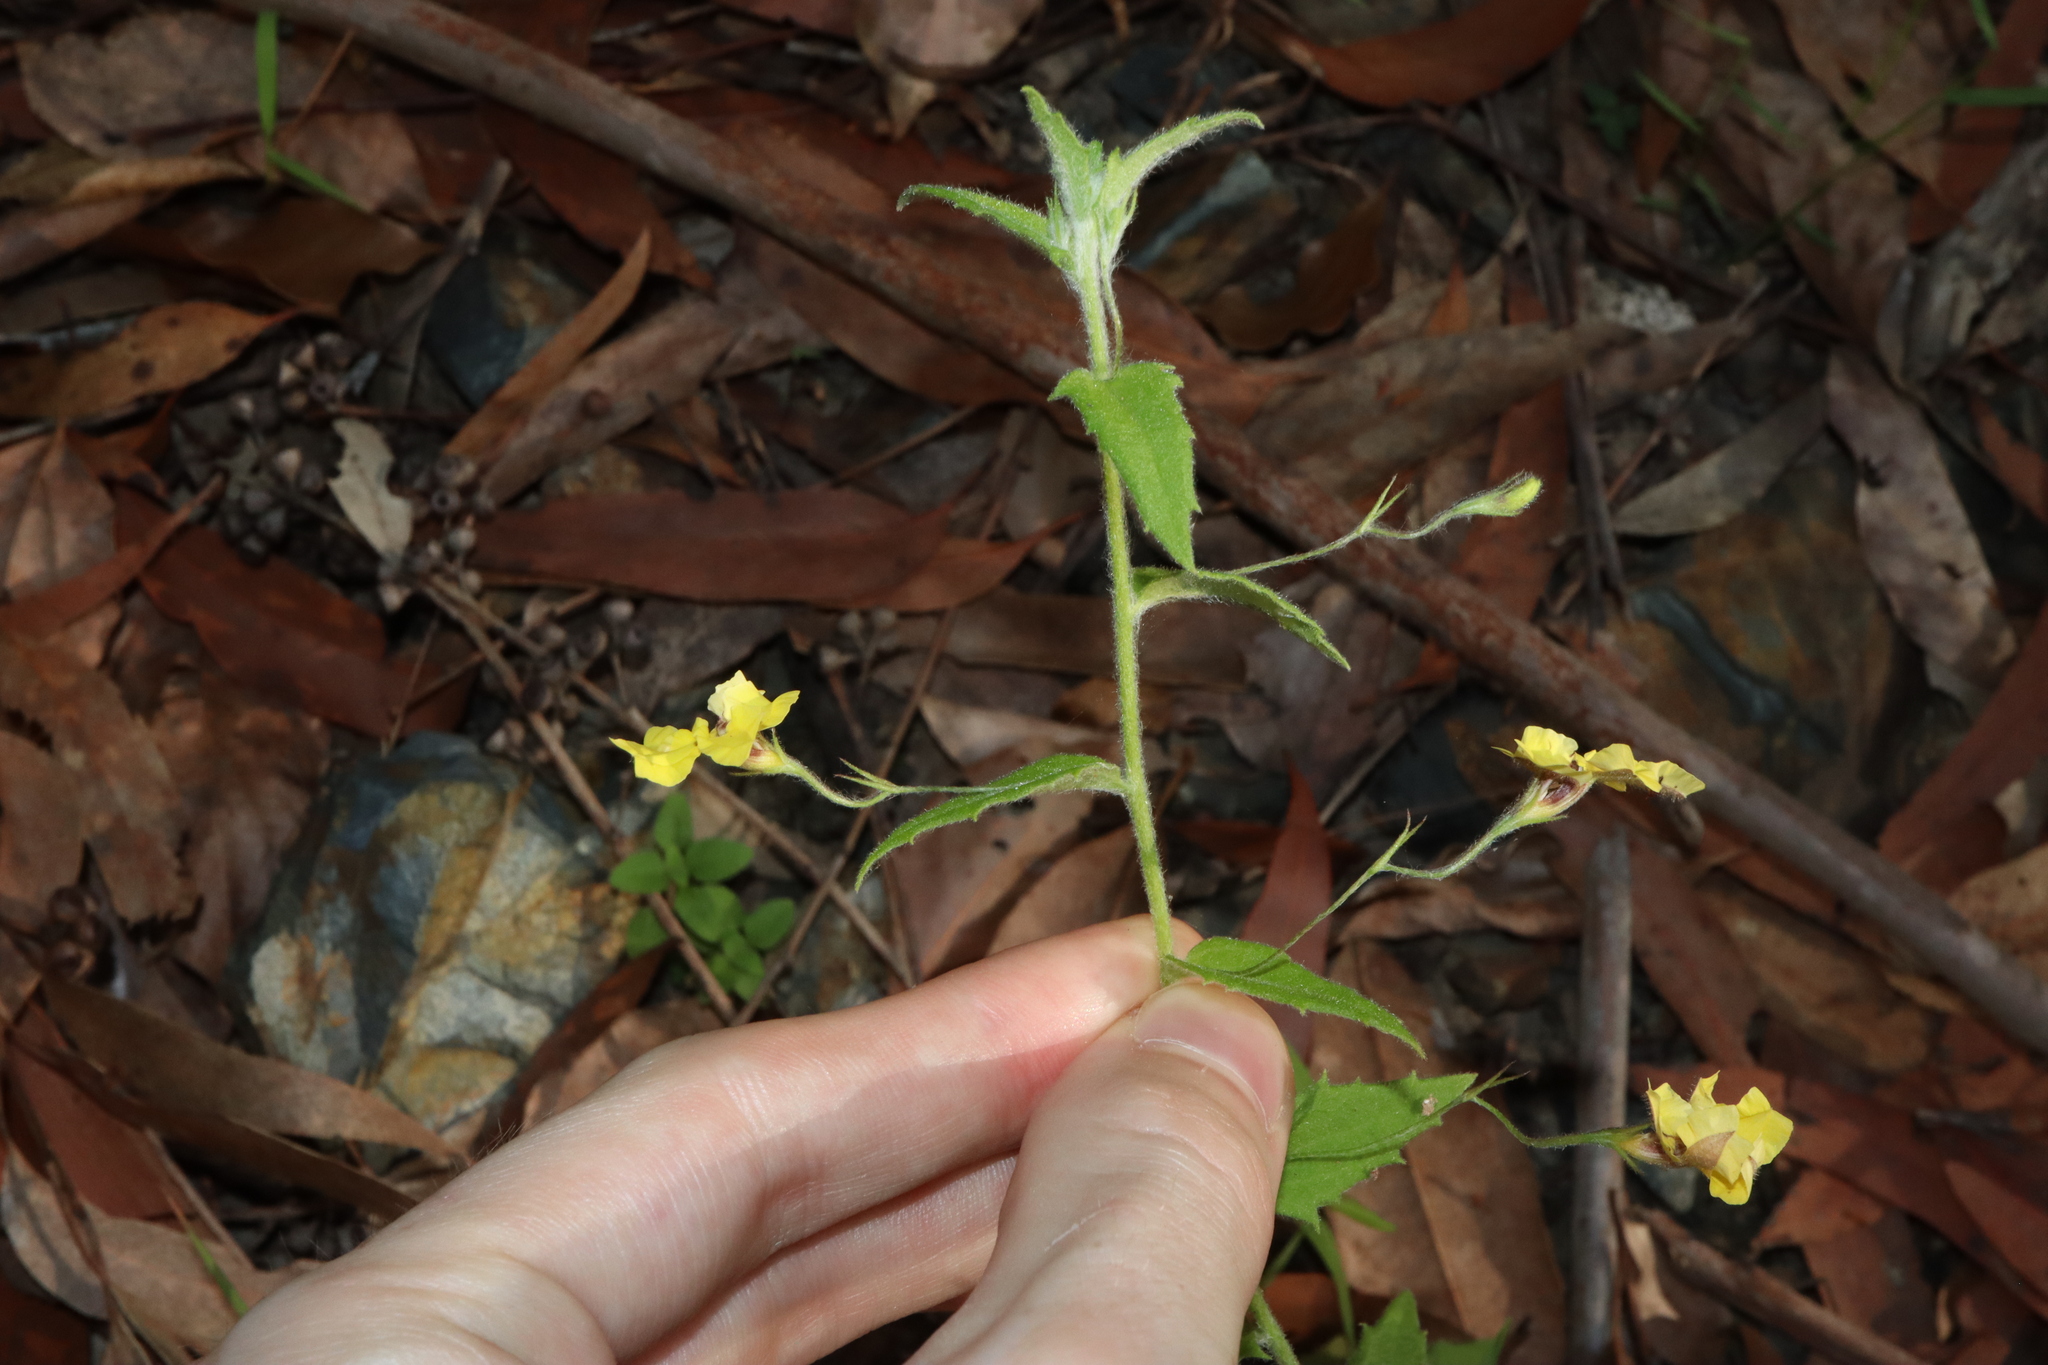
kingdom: Plantae
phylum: Tracheophyta
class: Magnoliopsida
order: Asterales
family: Goodeniaceae
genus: Goodenia
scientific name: Goodenia heterophylla
